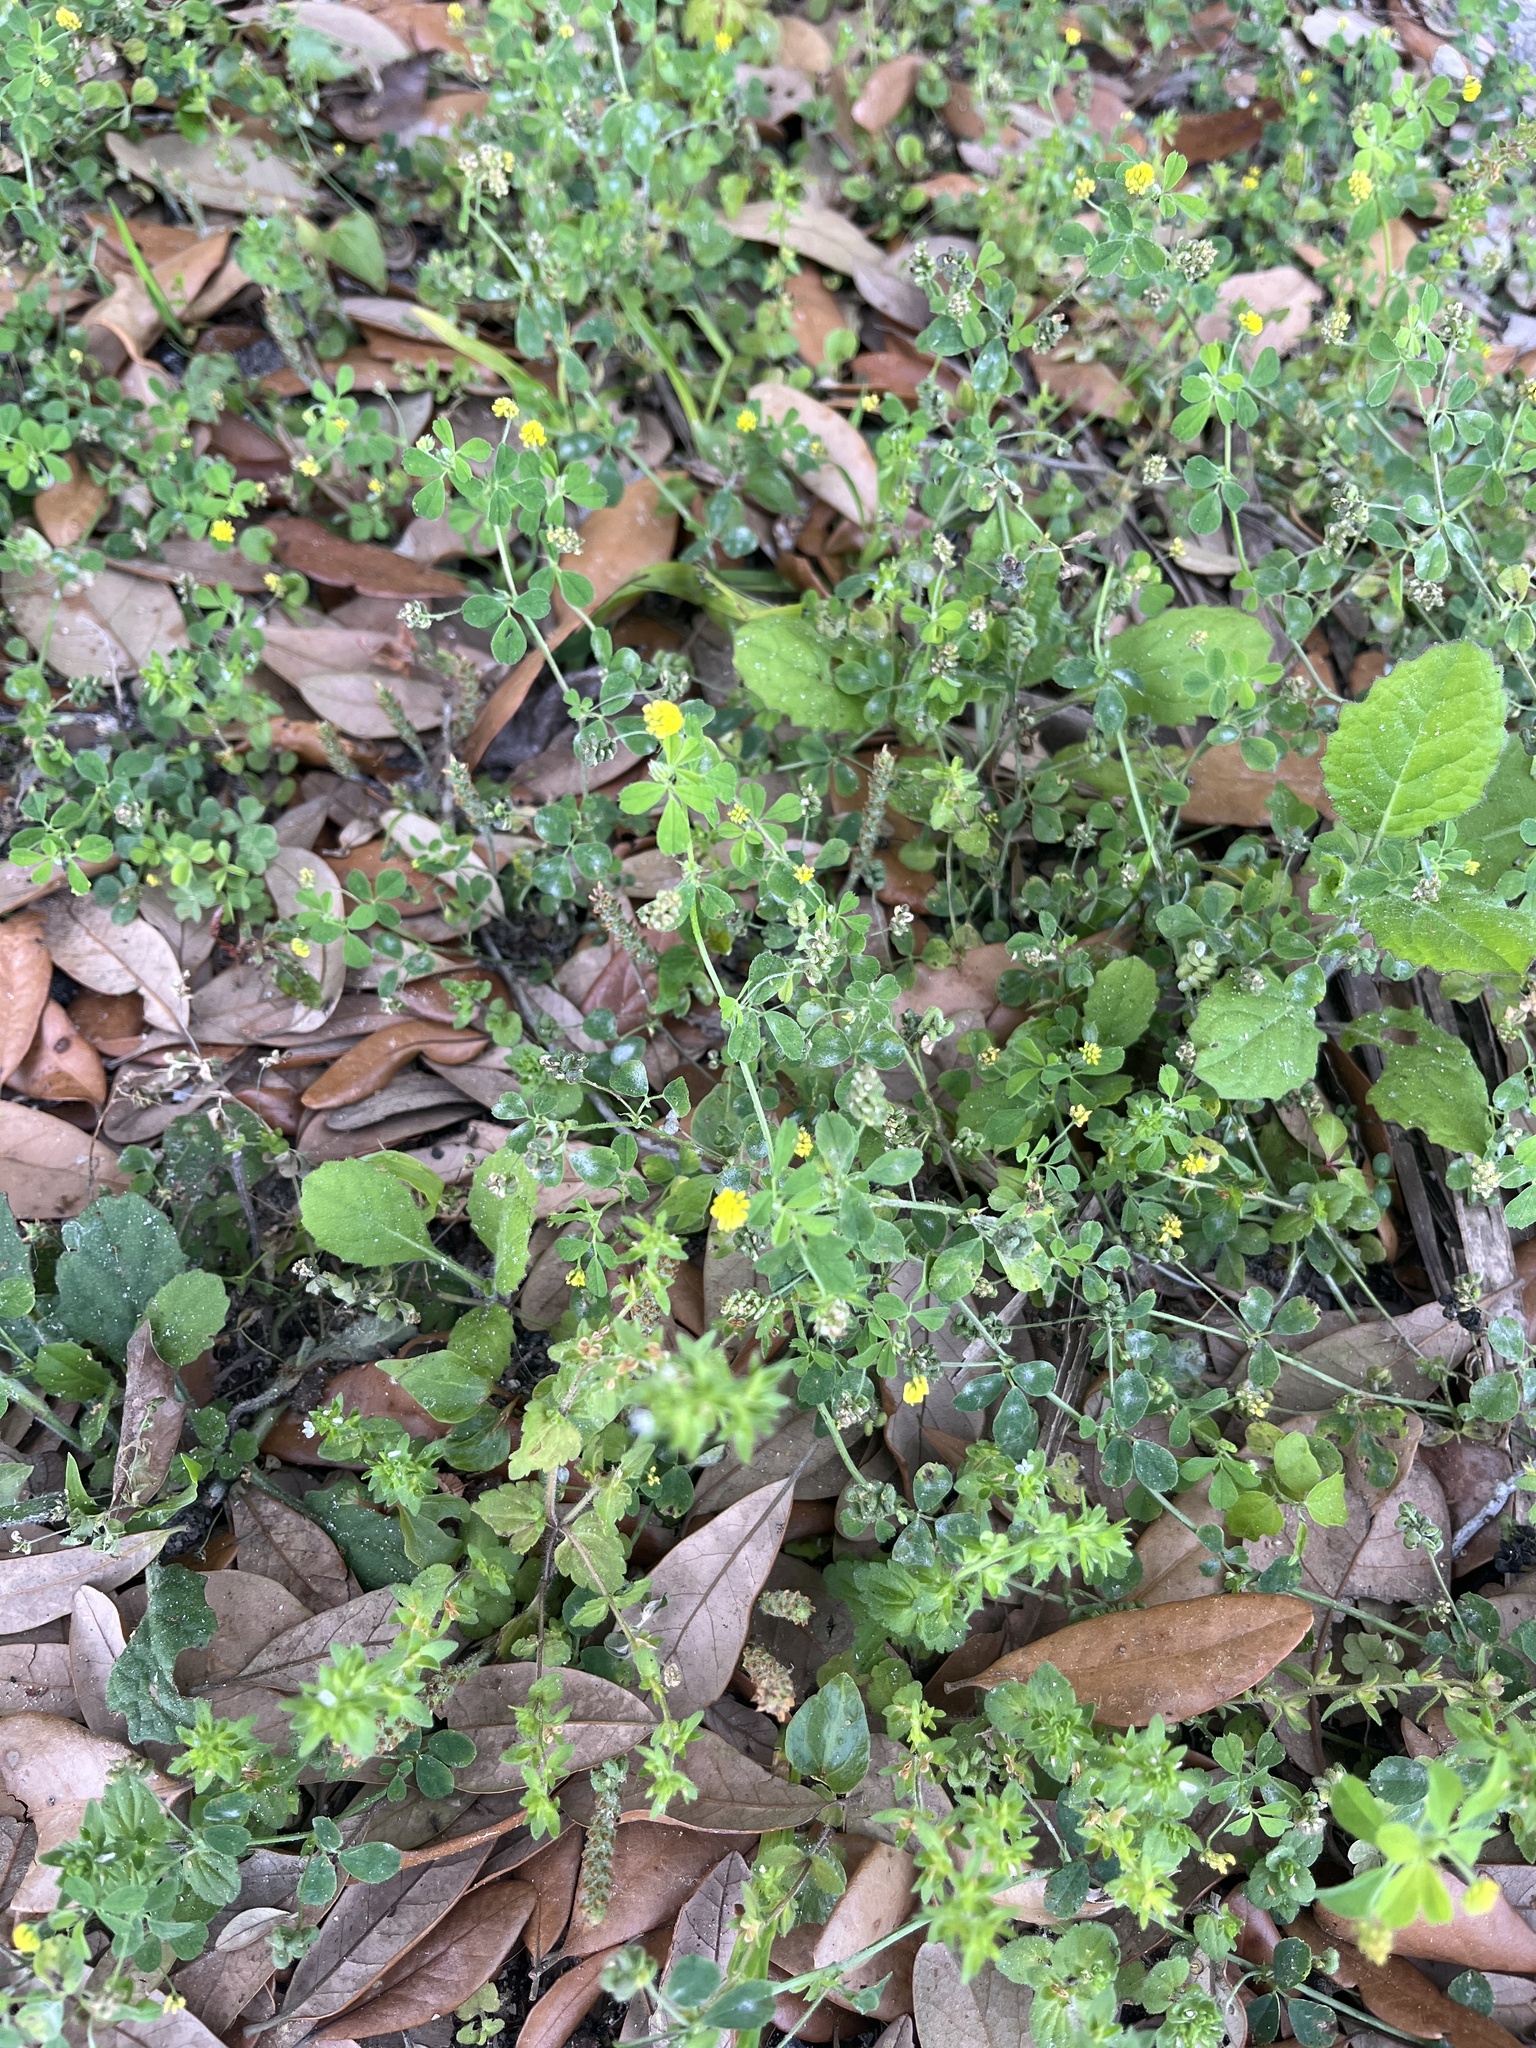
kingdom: Plantae
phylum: Tracheophyta
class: Magnoliopsida
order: Fabales
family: Fabaceae
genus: Medicago
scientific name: Medicago lupulina
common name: Black medick
